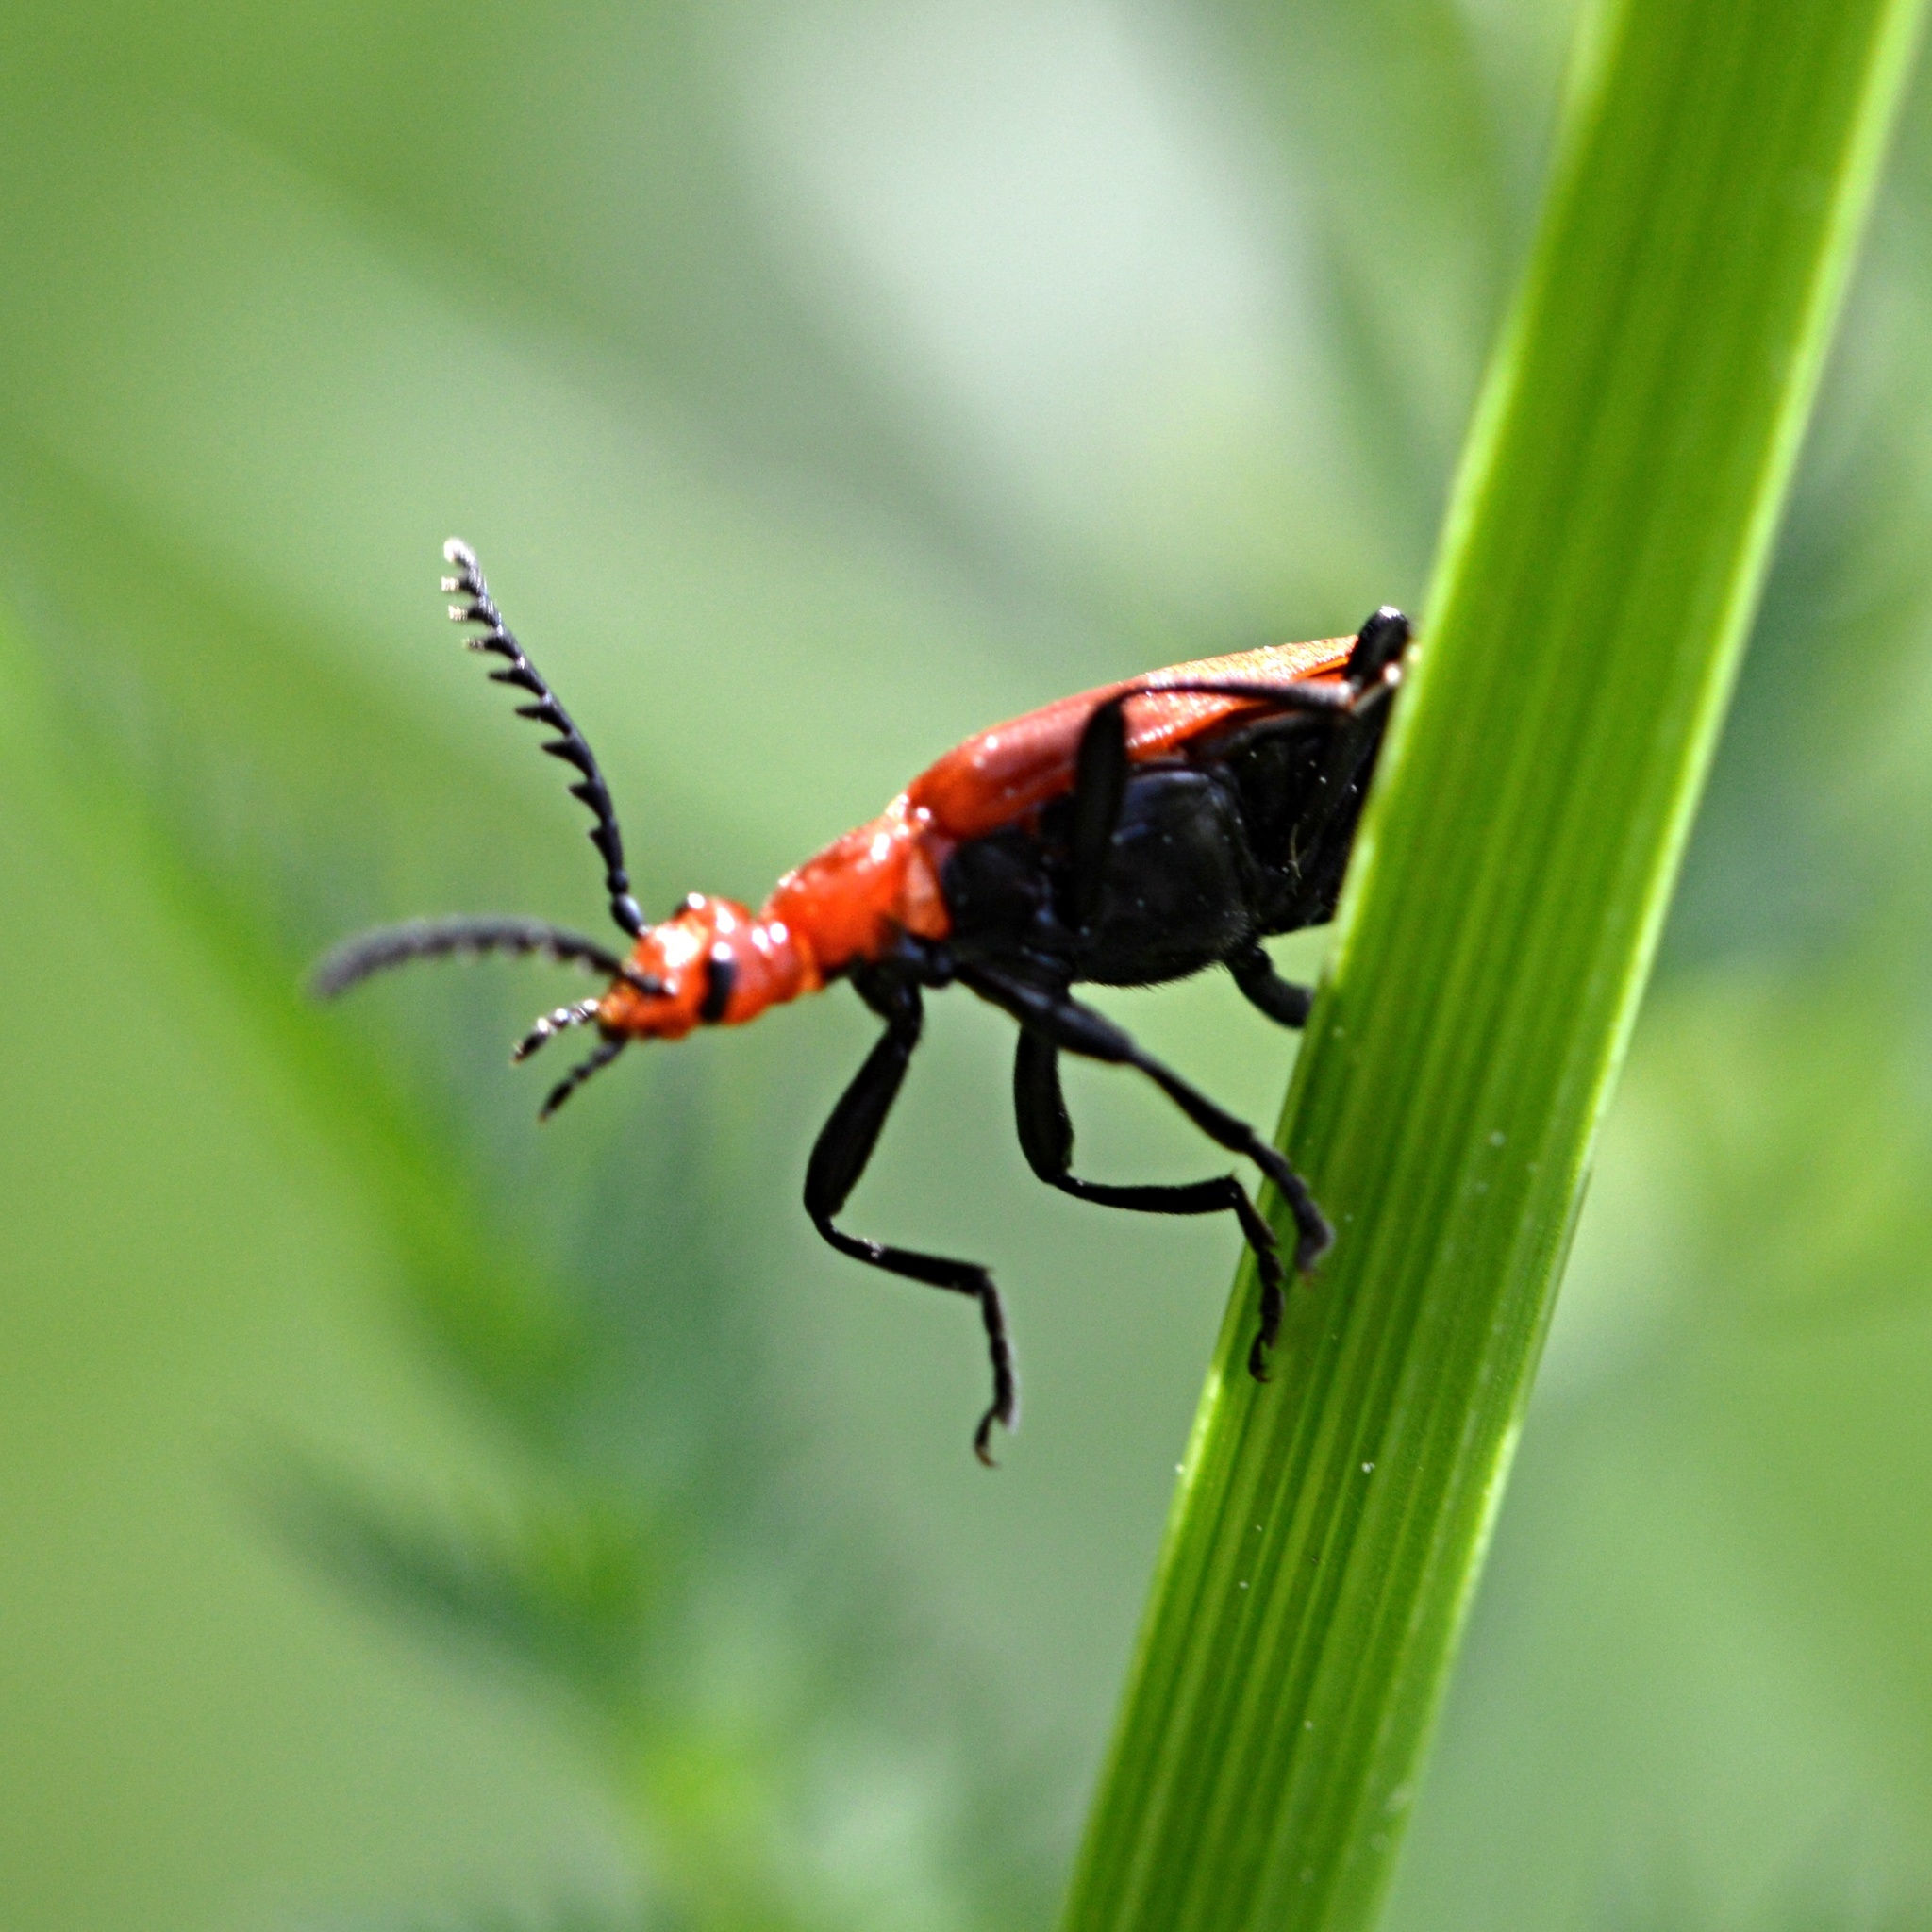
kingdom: Animalia
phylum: Arthropoda
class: Insecta
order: Coleoptera
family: Pyrochroidae
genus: Pyrochroa
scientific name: Pyrochroa serraticornis
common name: Red-headed cardinal beetle
